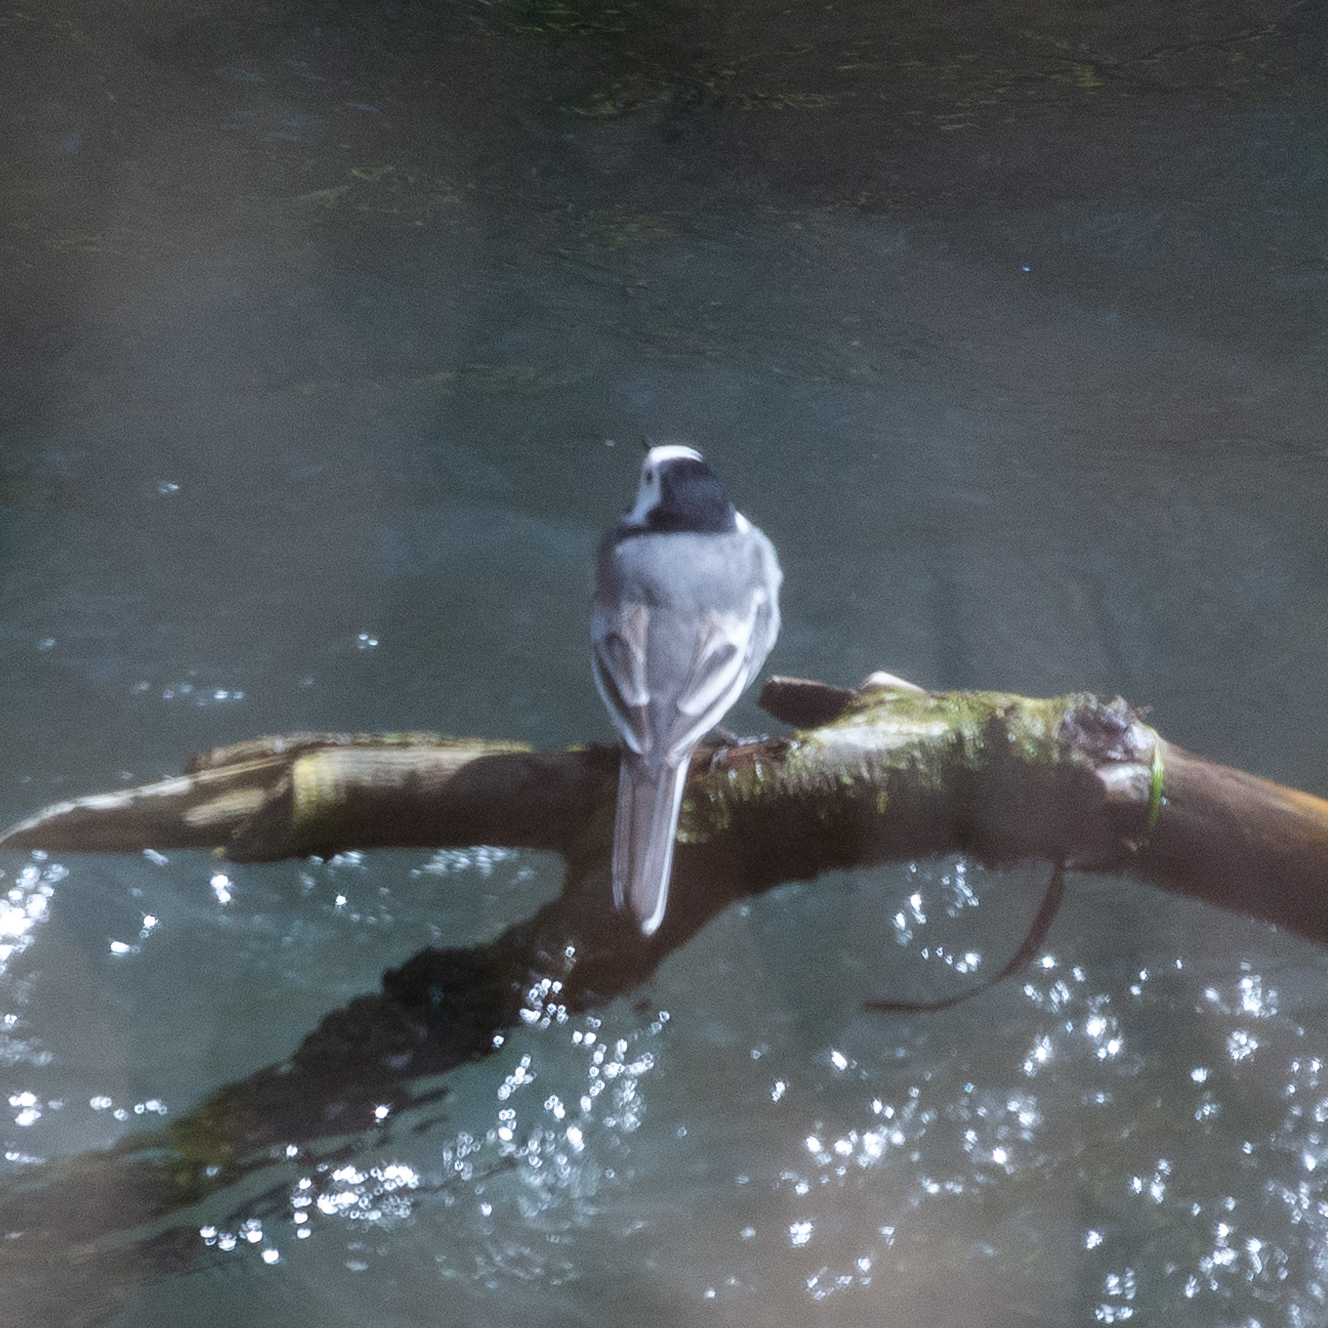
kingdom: Animalia
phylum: Chordata
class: Aves
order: Passeriformes
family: Motacillidae
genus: Motacilla
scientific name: Motacilla alba
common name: White wagtail
